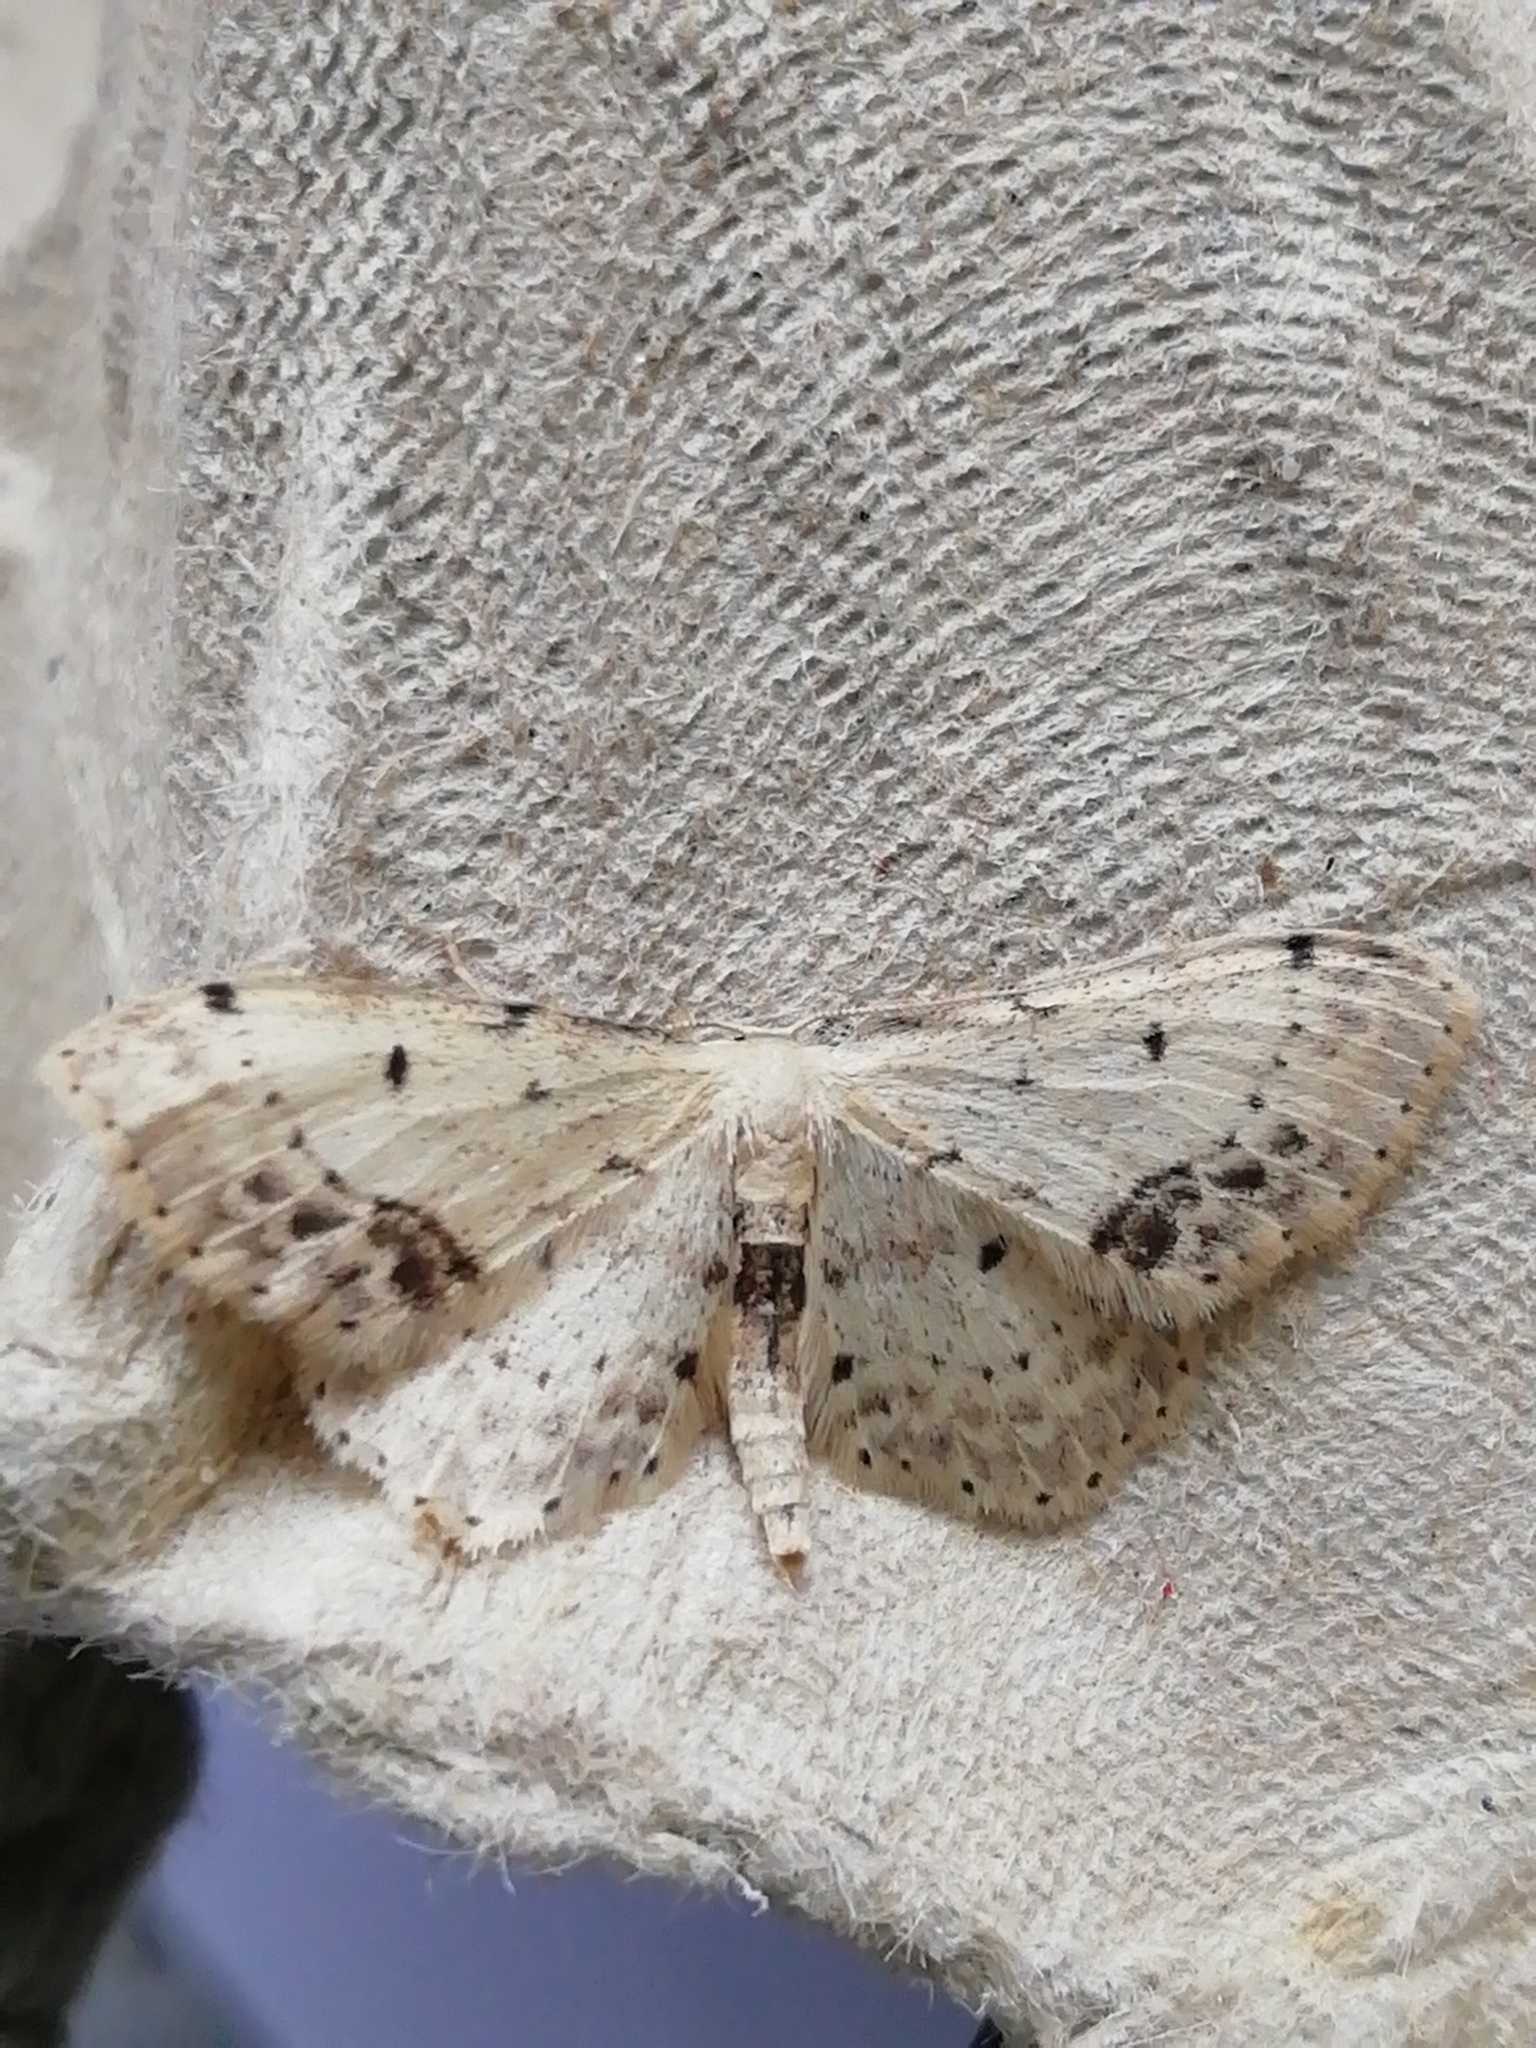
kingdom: Animalia
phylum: Arthropoda
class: Insecta
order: Lepidoptera
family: Geometridae
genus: Idaea
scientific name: Idaea dimidiata
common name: Single-dotted wave
